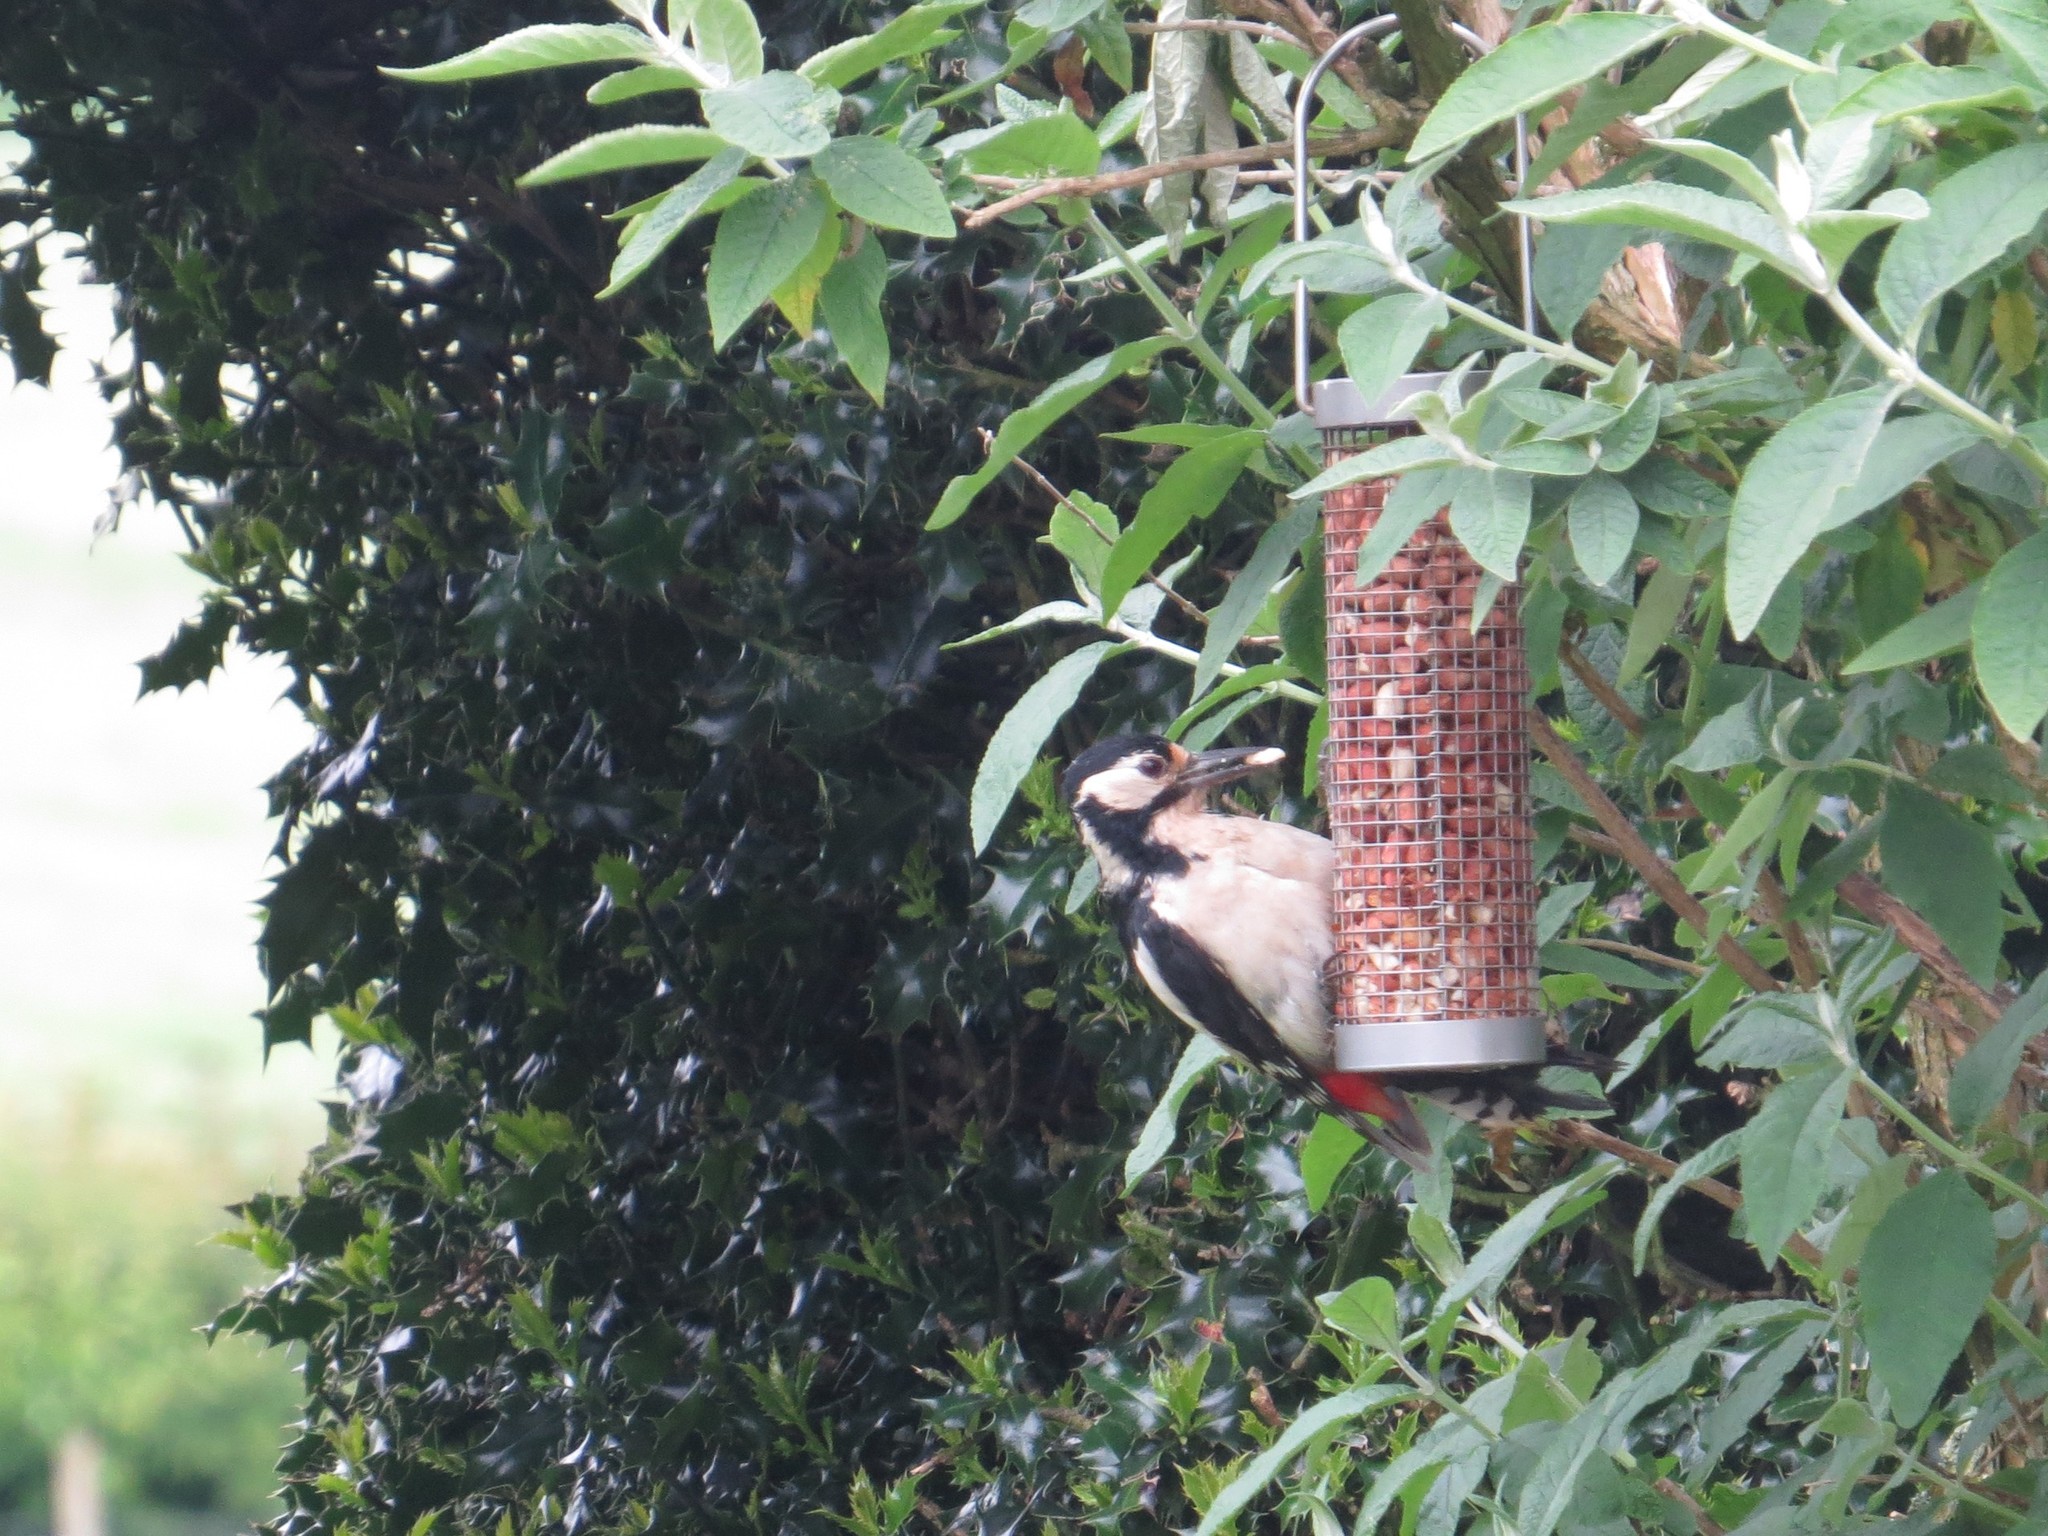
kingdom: Animalia
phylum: Chordata
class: Aves
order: Piciformes
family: Picidae
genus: Dendrocopos
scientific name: Dendrocopos major
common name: Great spotted woodpecker
